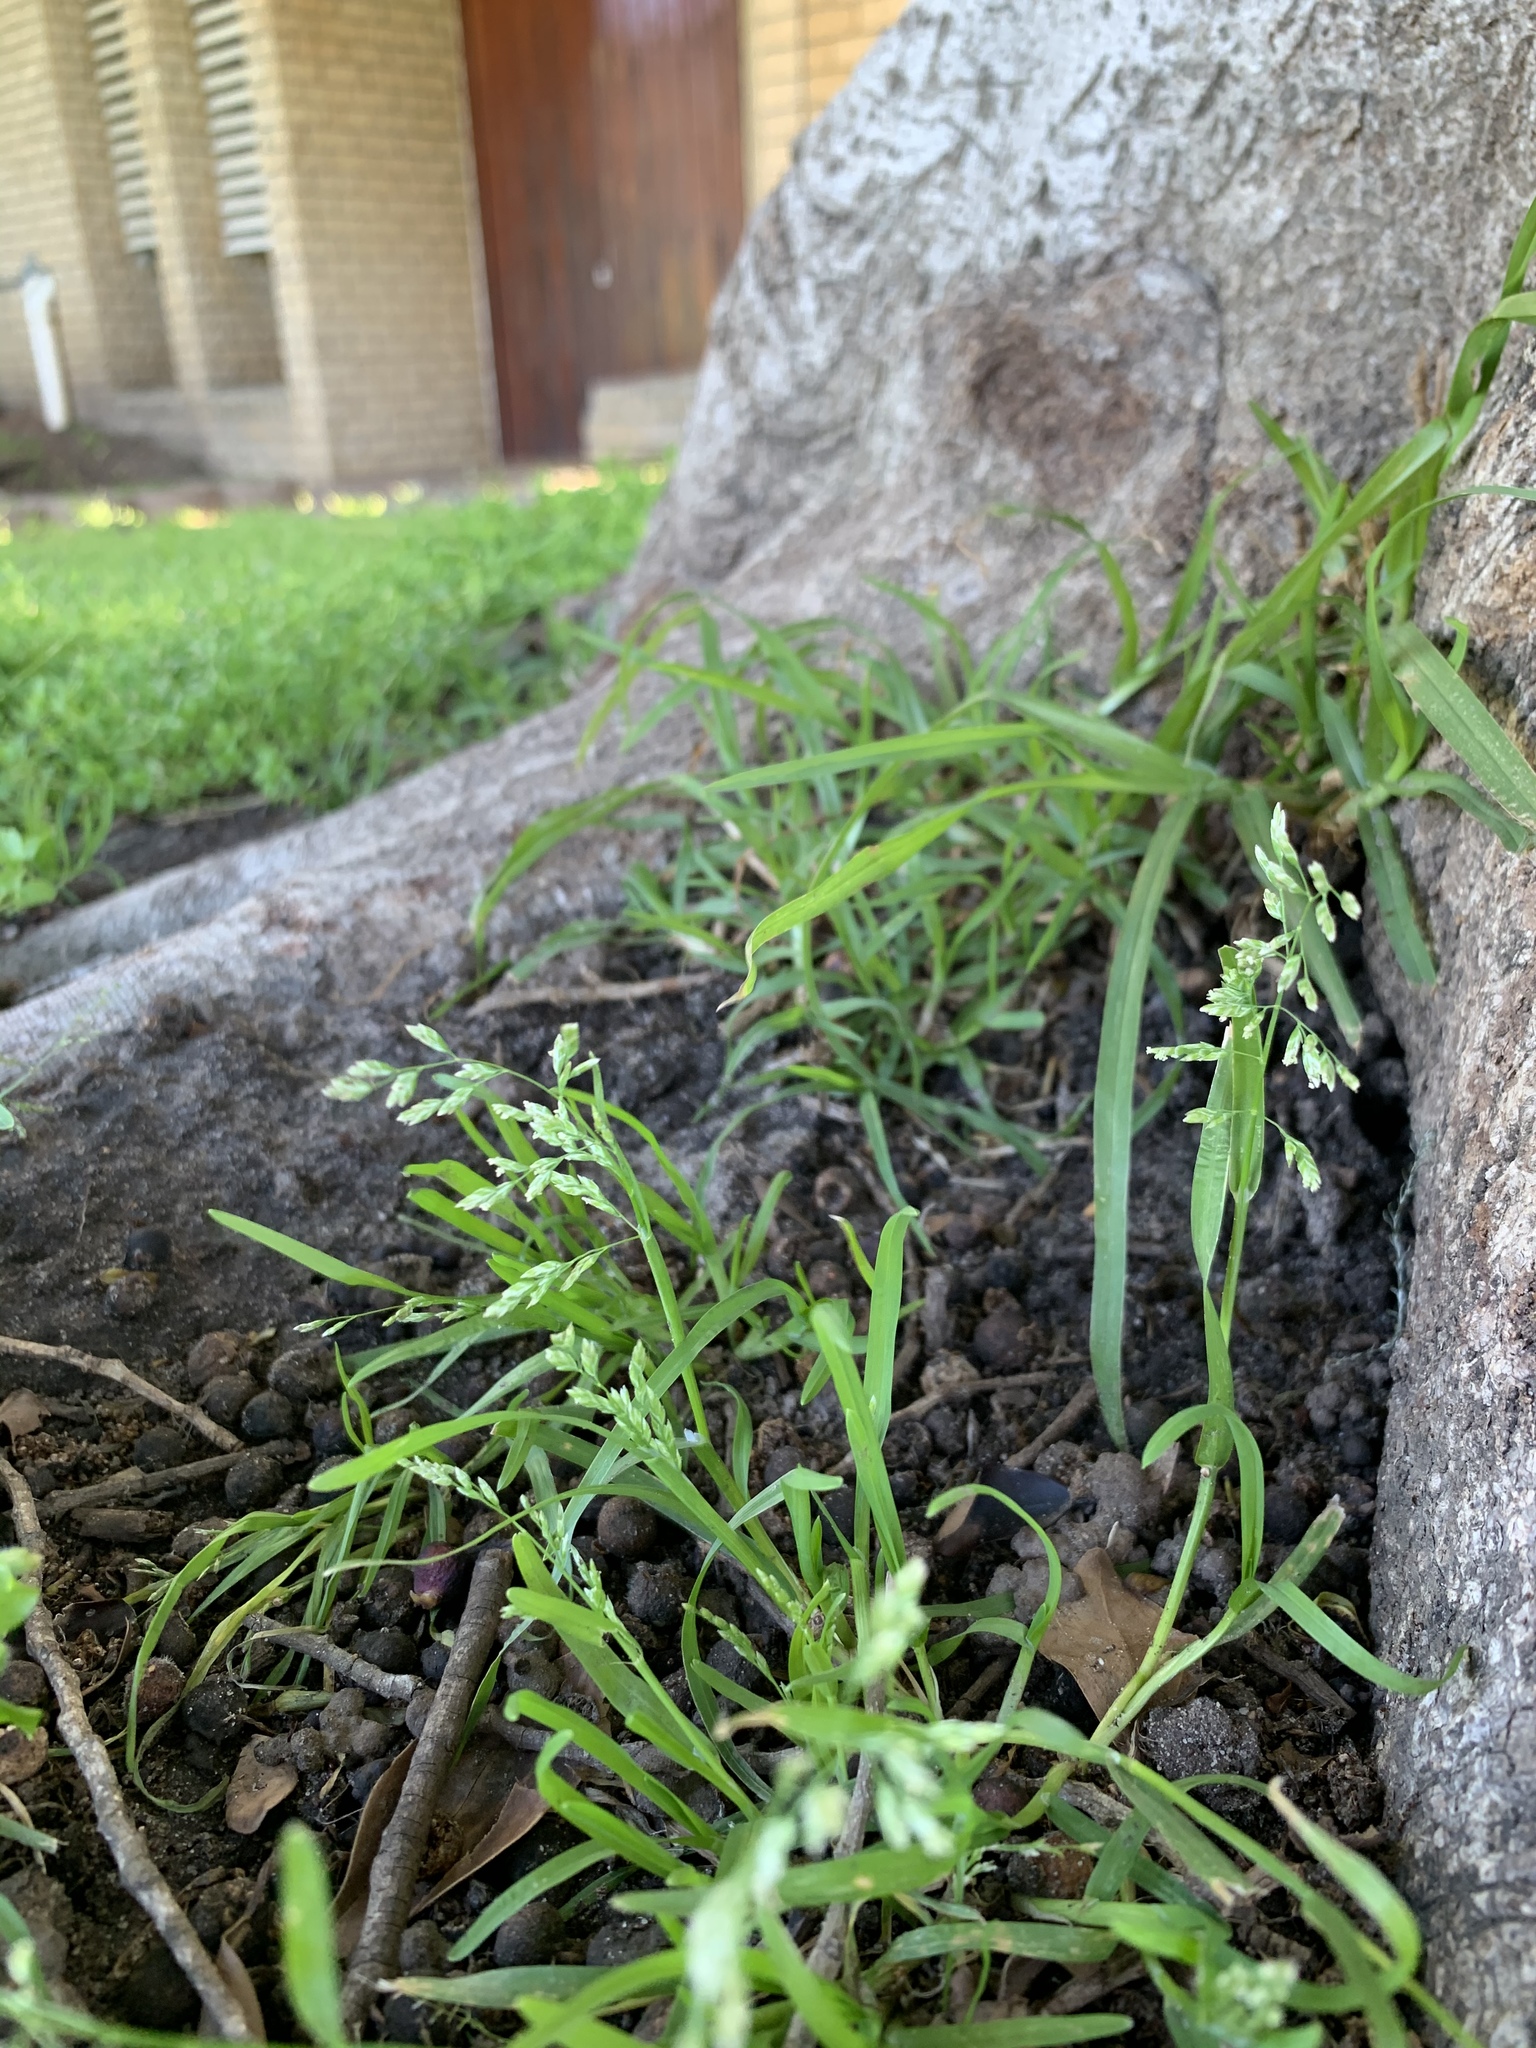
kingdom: Plantae
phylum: Tracheophyta
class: Liliopsida
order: Poales
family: Poaceae
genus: Poa
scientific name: Poa annua
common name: Annual bluegrass
